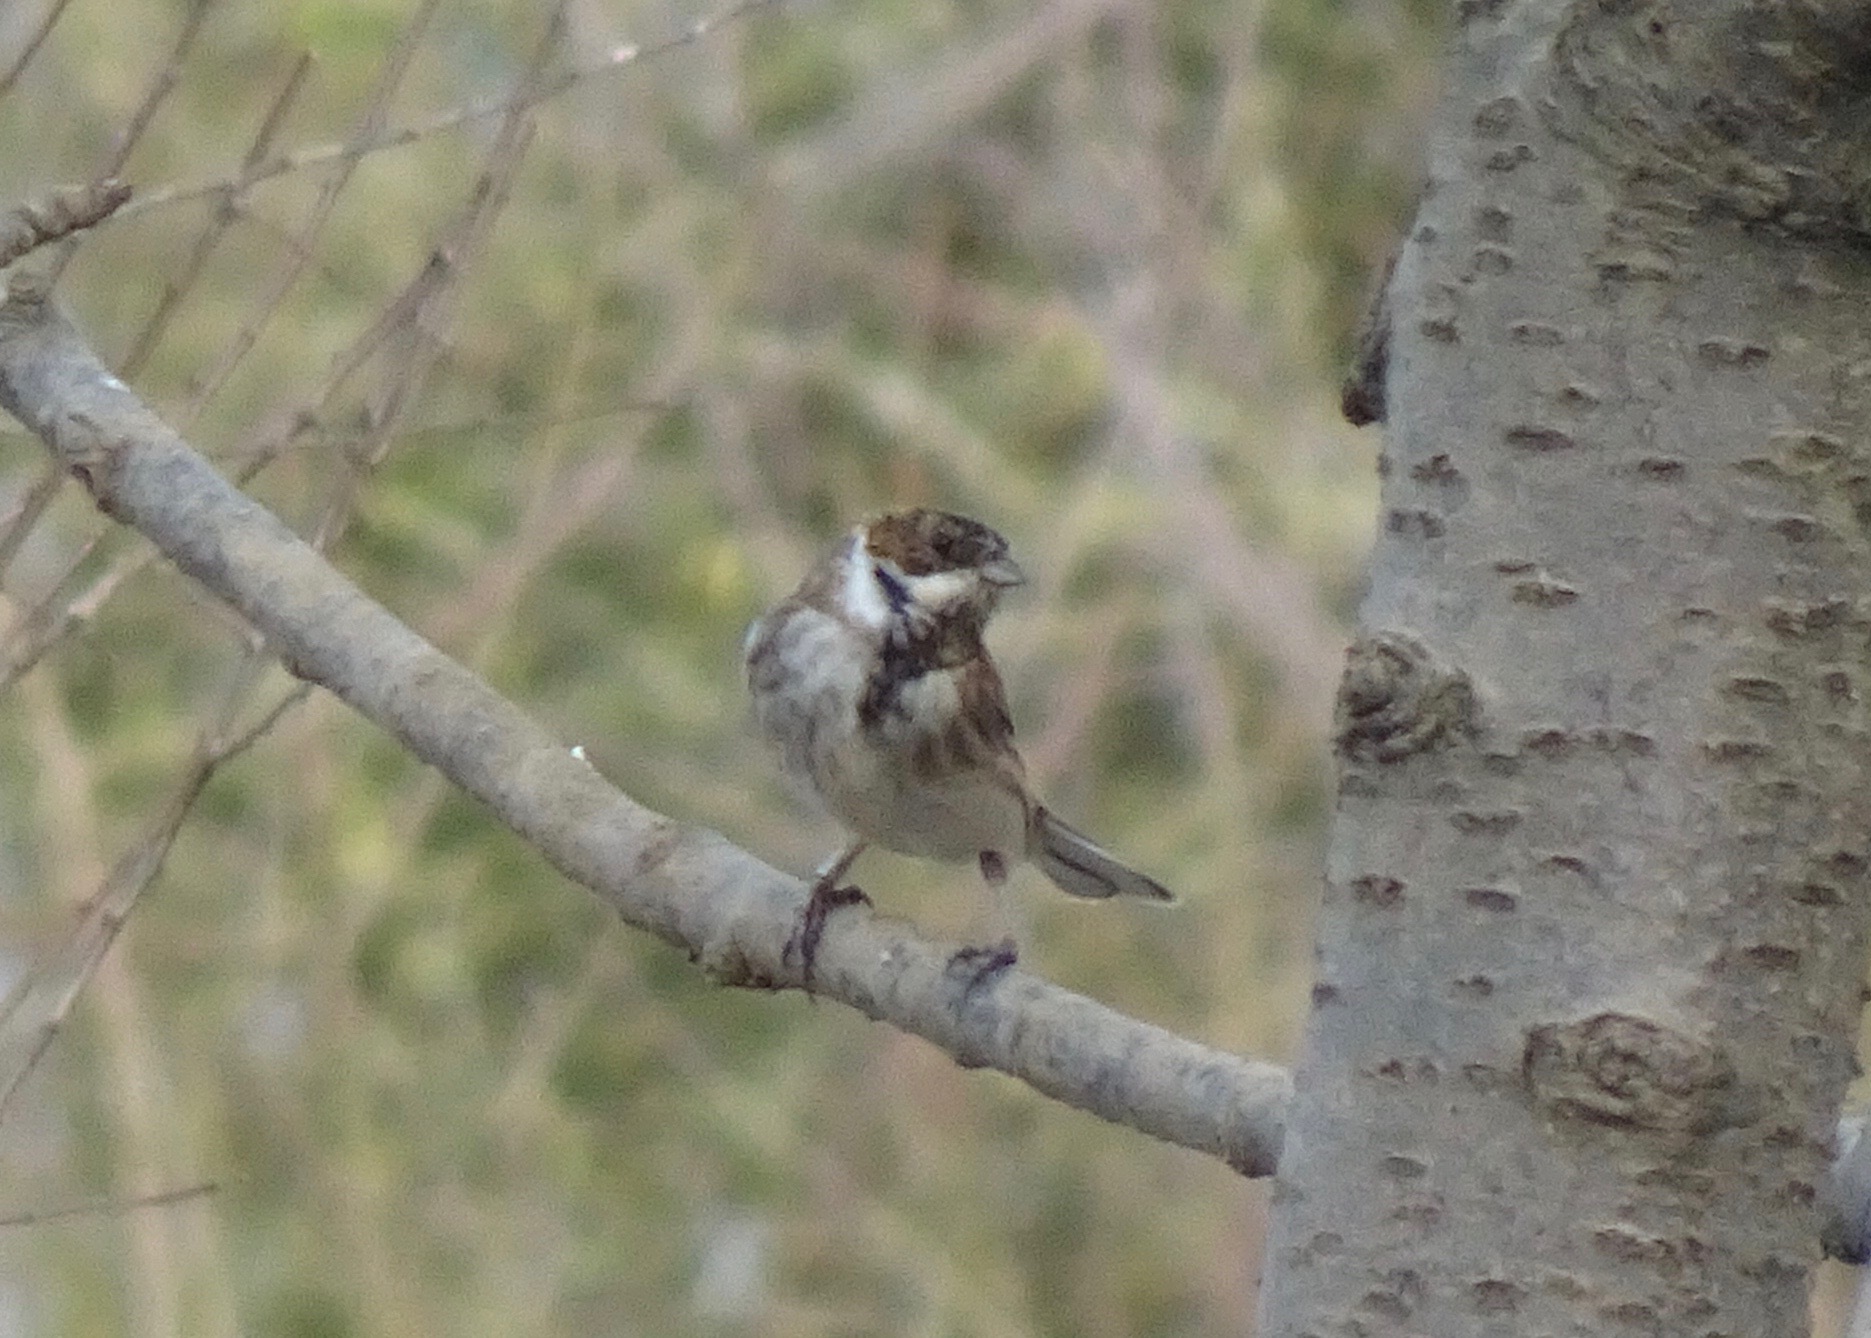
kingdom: Animalia
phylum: Chordata
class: Aves
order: Passeriformes
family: Emberizidae
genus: Emberiza
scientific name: Emberiza schoeniclus
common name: Reed bunting
